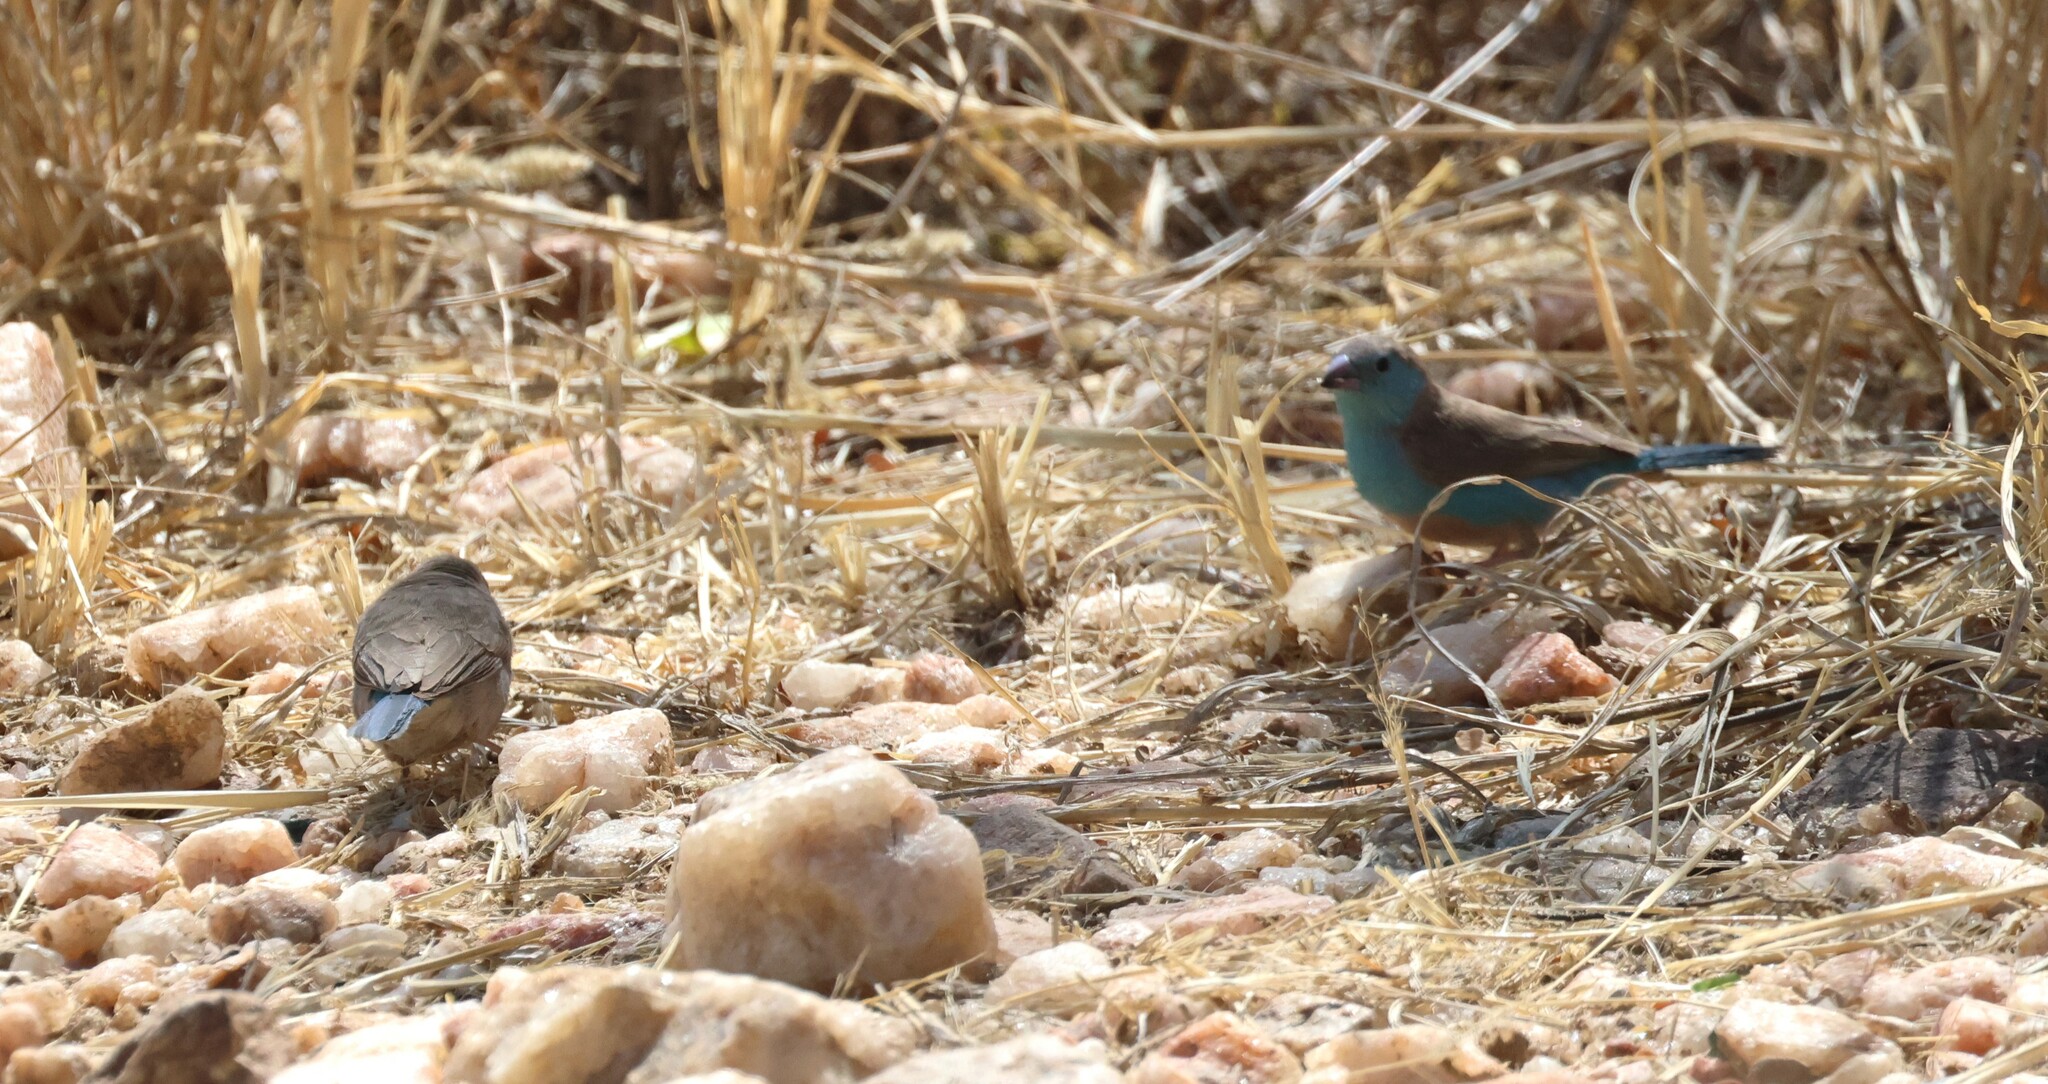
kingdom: Animalia
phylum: Chordata
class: Aves
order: Passeriformes
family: Estrildidae
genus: Uraeginthus
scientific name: Uraeginthus angolensis
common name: Blue waxbill
